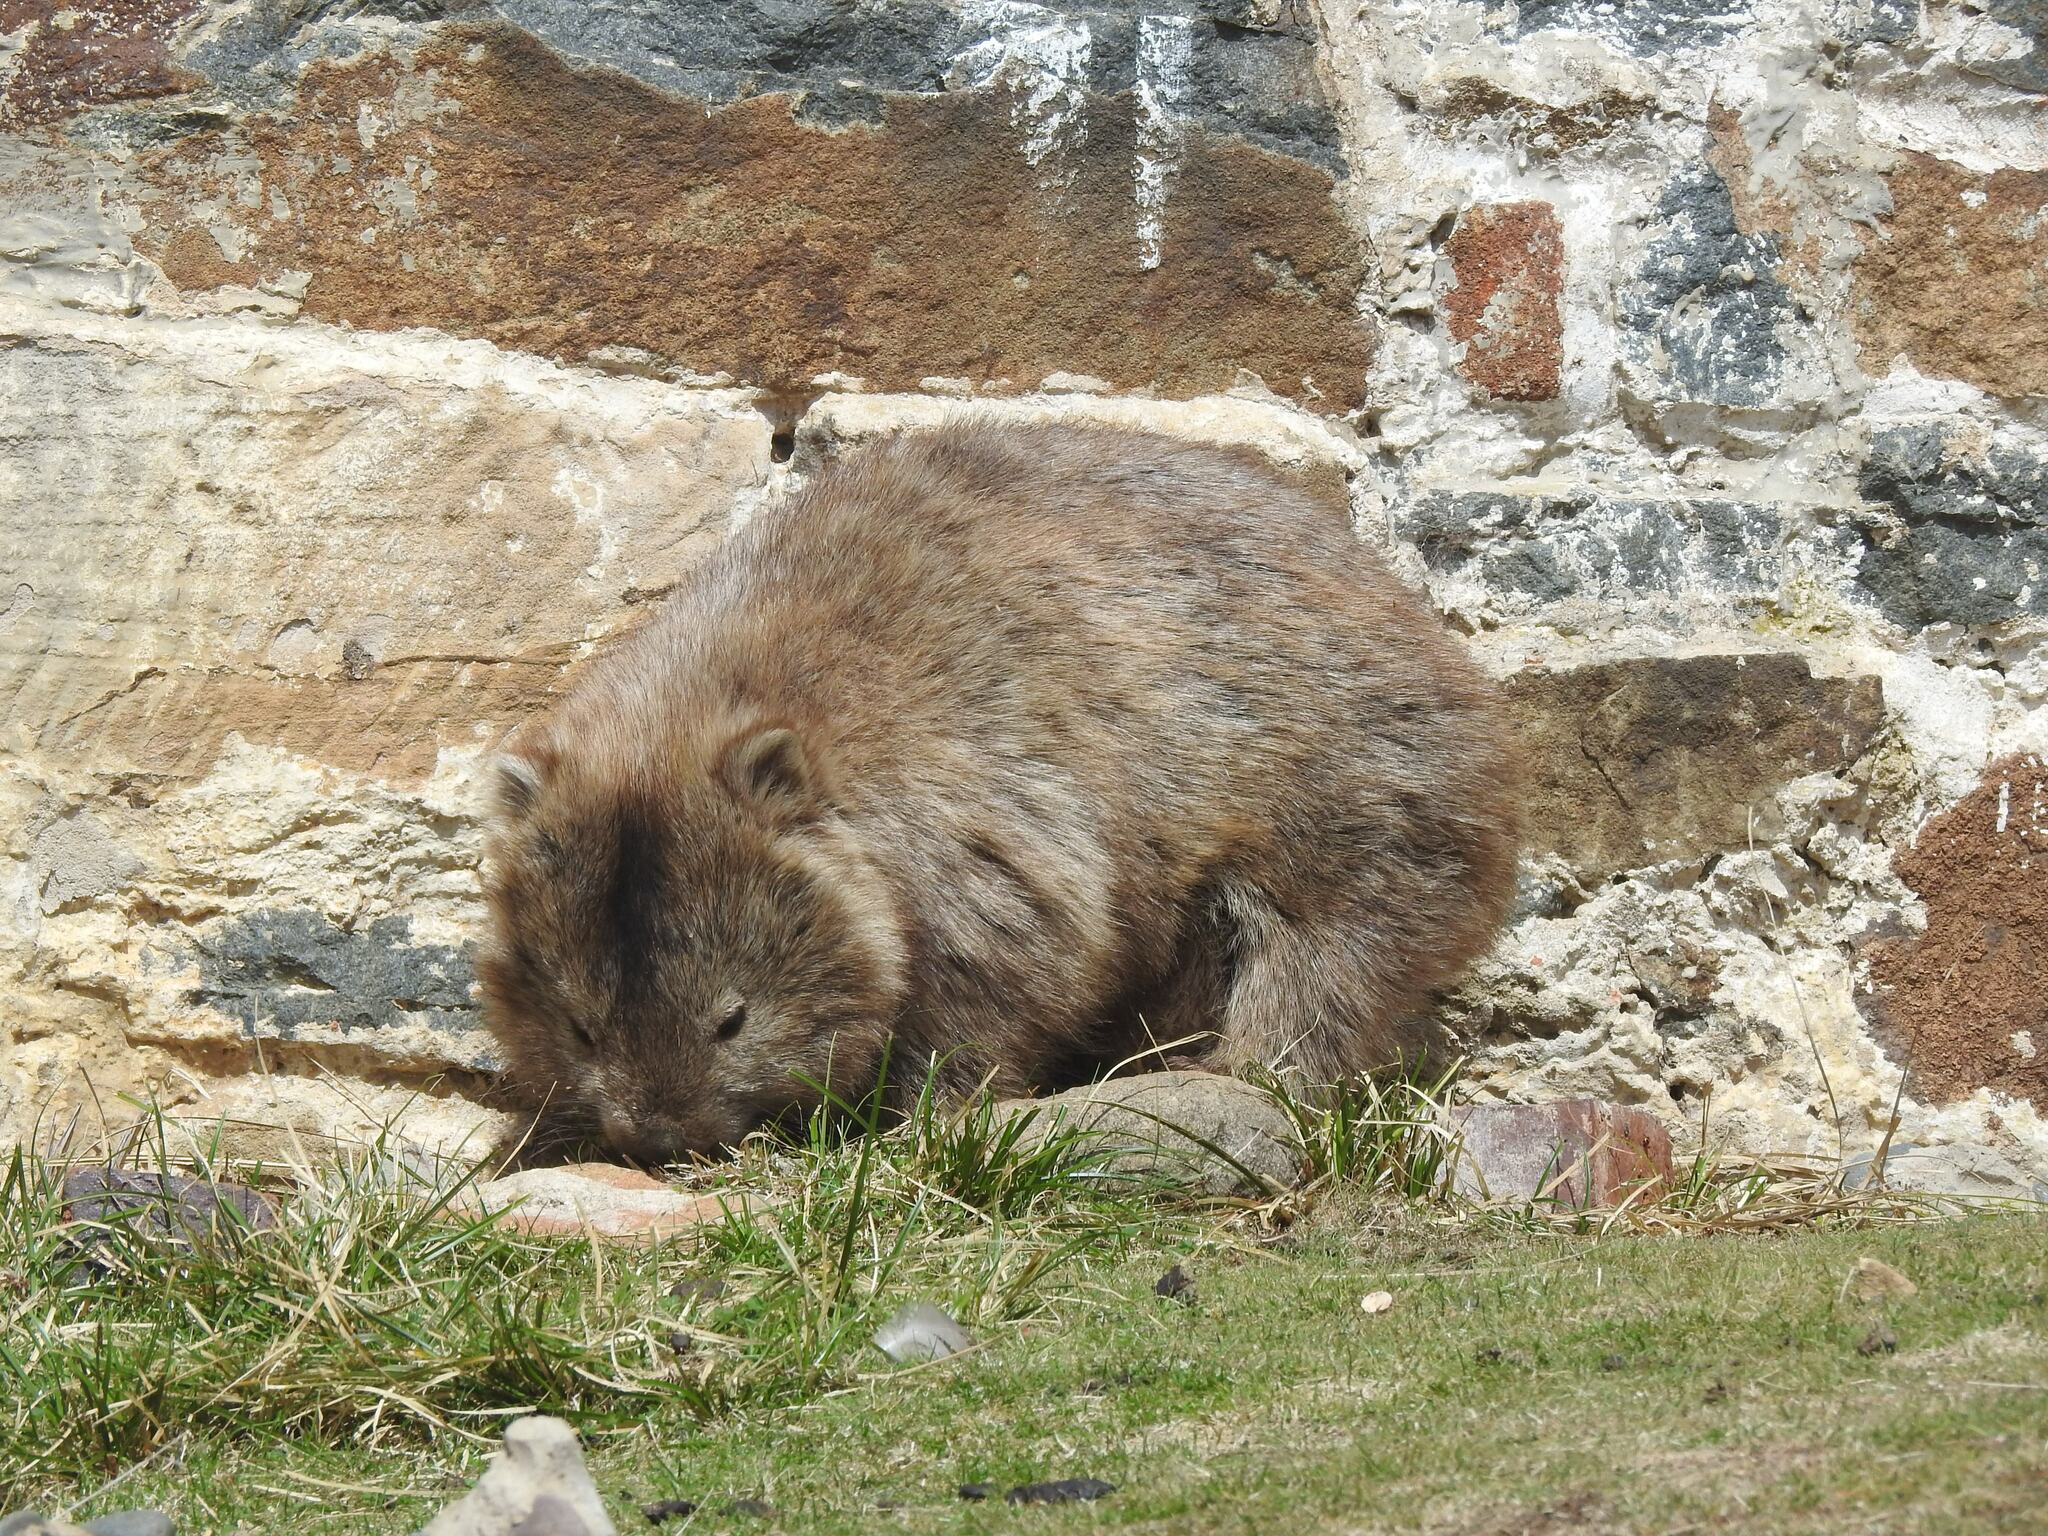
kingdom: Animalia
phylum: Chordata
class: Mammalia
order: Diprotodontia
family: Vombatidae
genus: Vombatus
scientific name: Vombatus ursinus
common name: Common wombat
